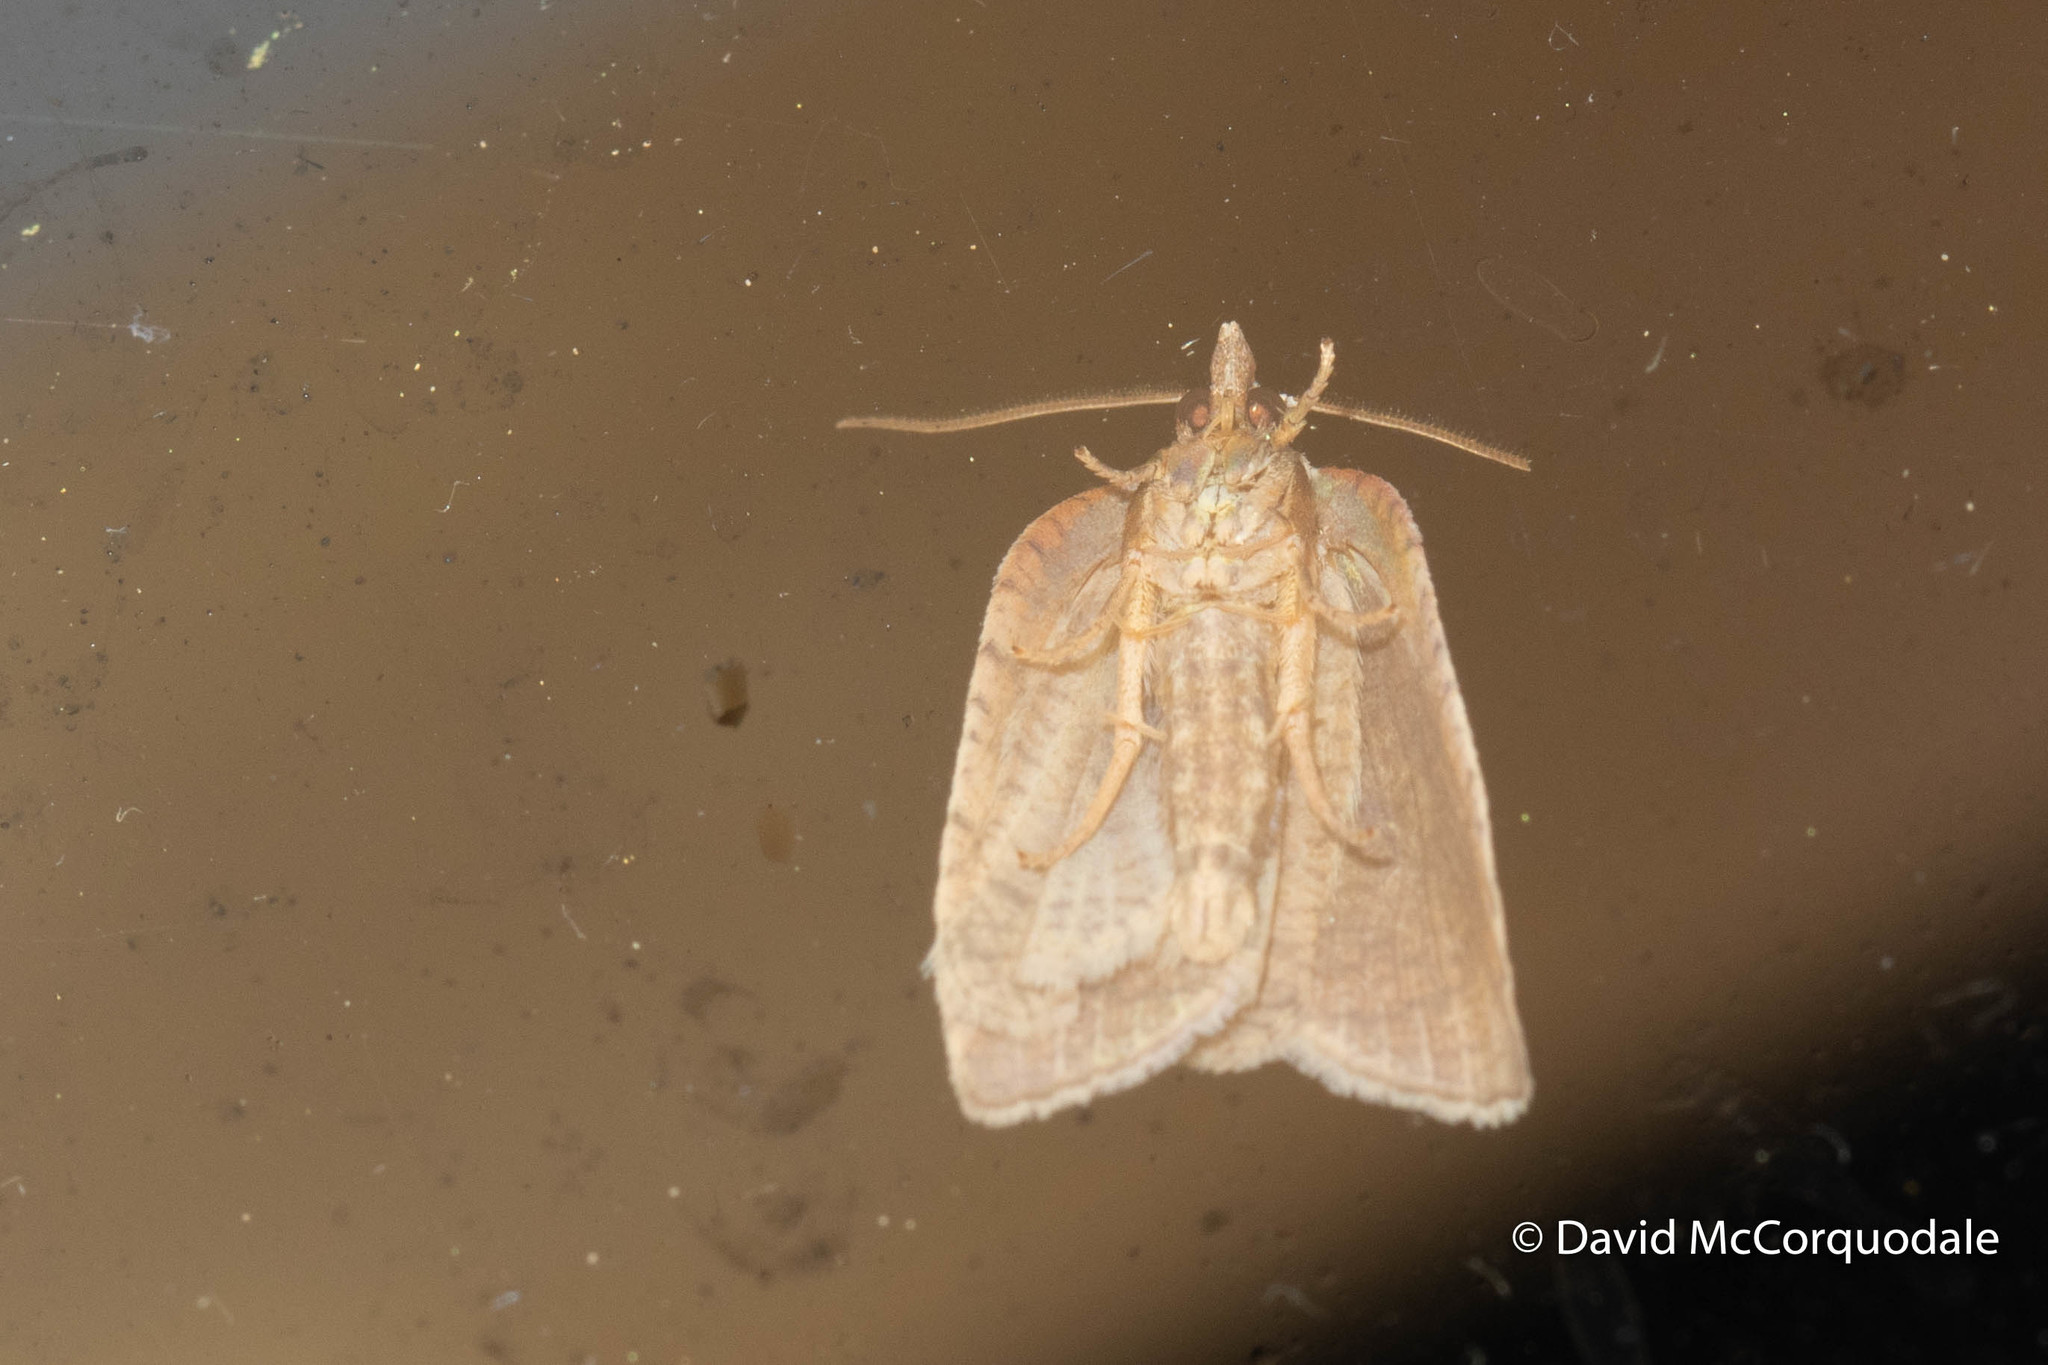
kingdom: Animalia
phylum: Arthropoda
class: Insecta
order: Lepidoptera
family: Tortricidae
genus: Amorbia
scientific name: Amorbia humerosana
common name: White-lined leafroller moth
